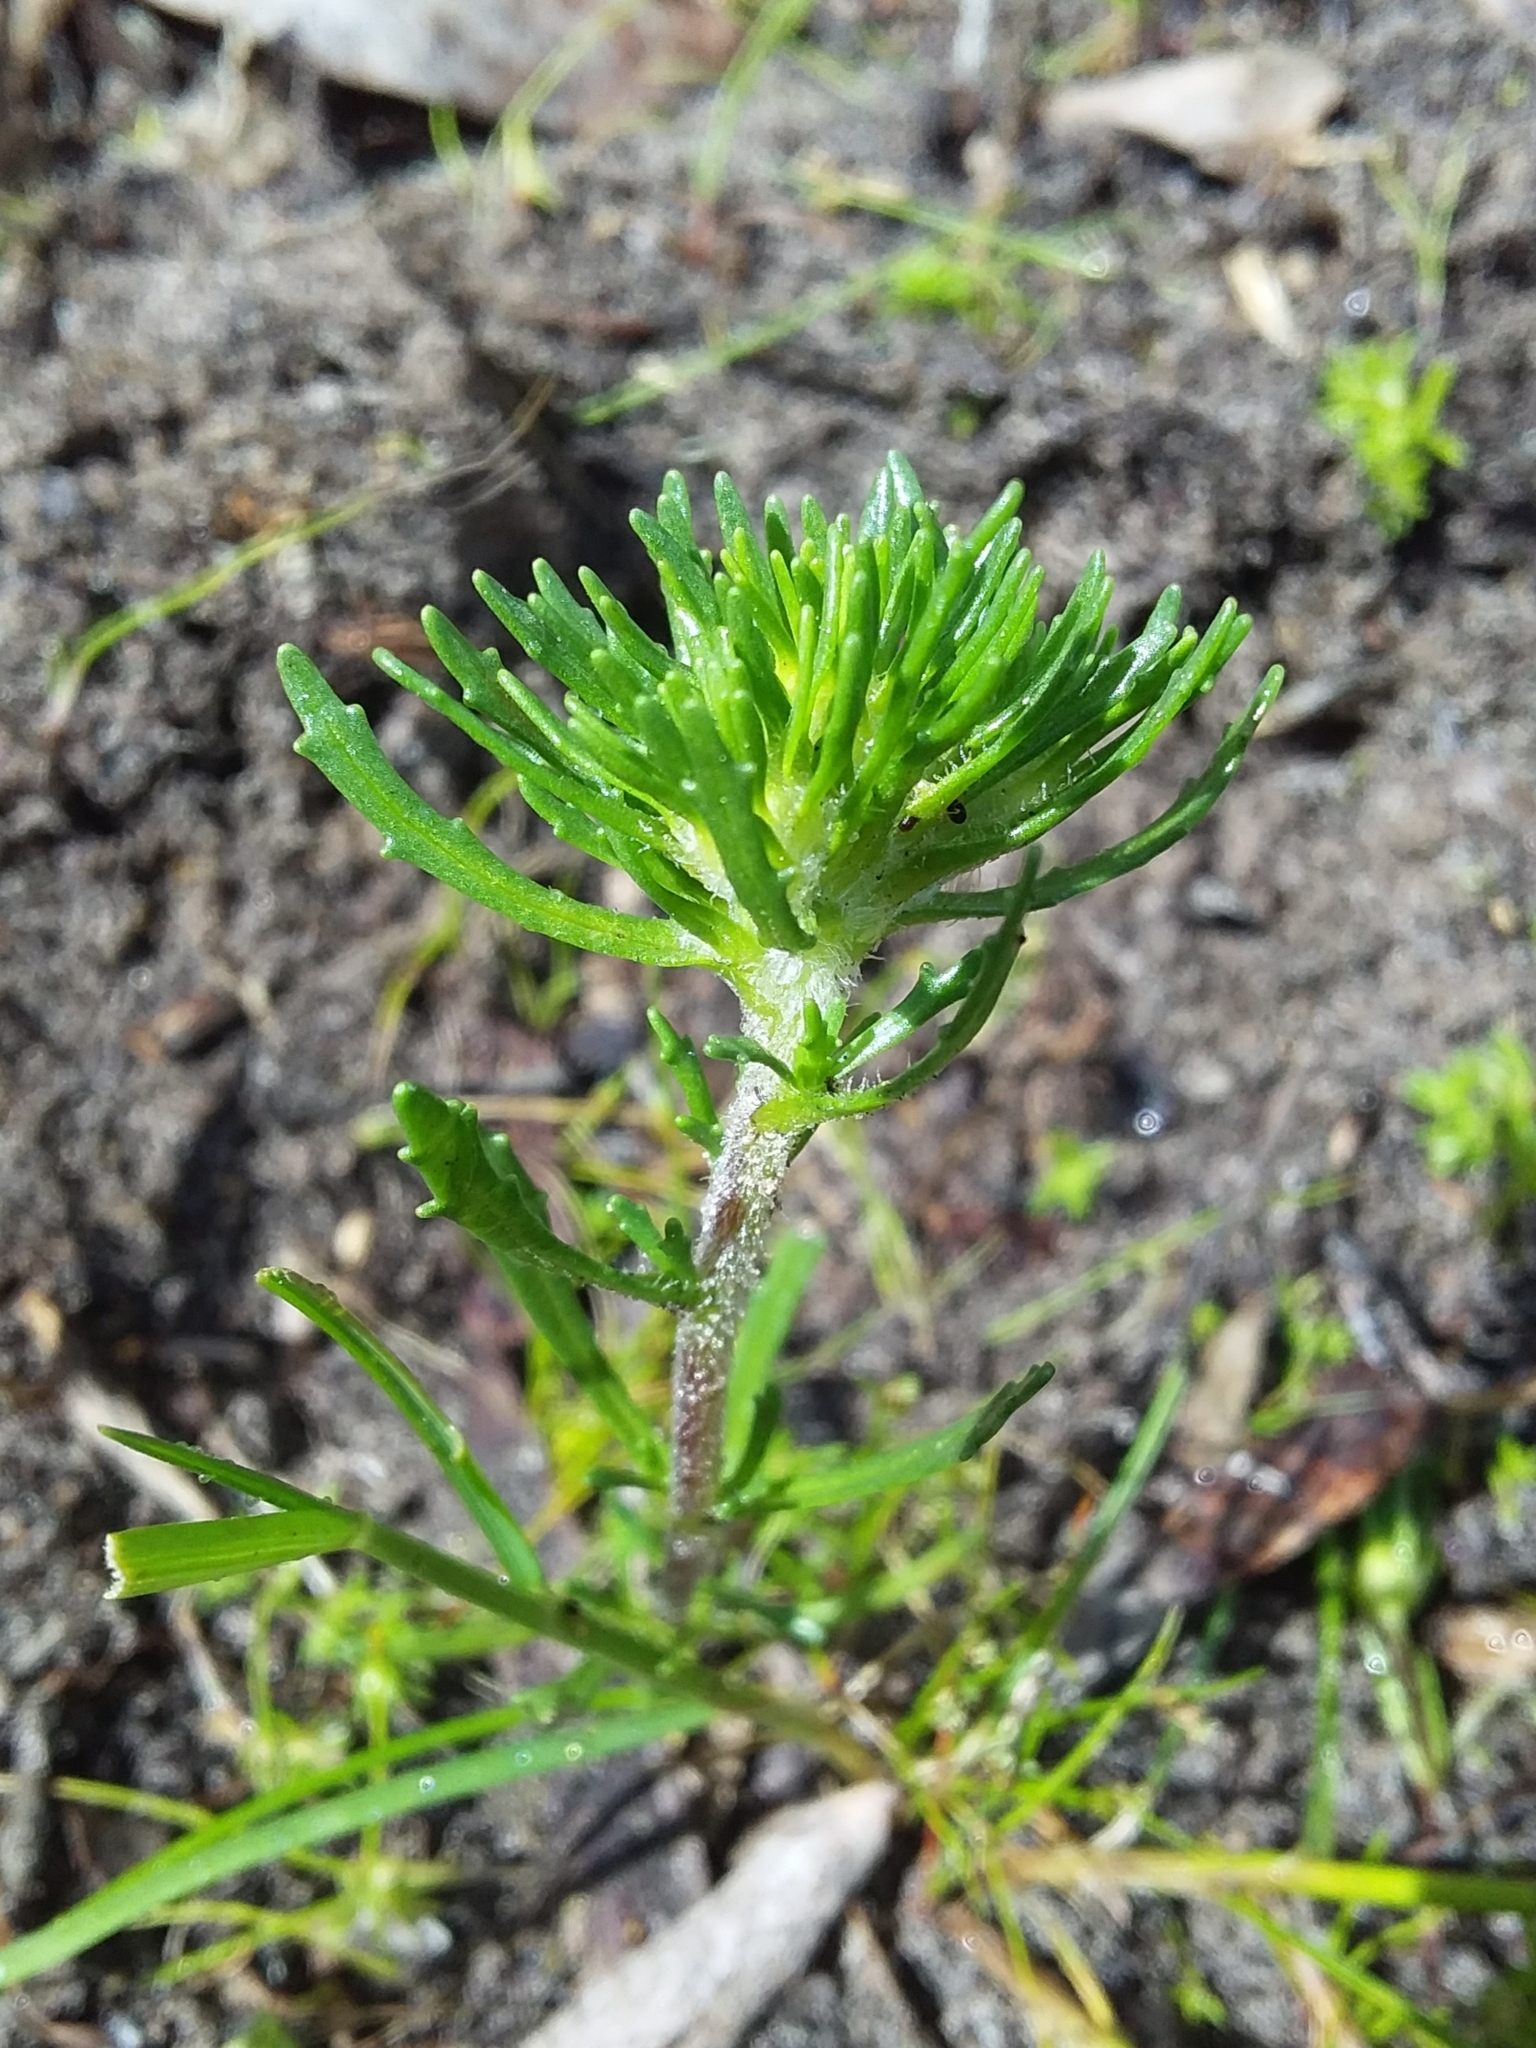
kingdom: Plantae
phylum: Tracheophyta
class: Magnoliopsida
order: Lamiales
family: Scrophulariaceae
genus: Dischisma
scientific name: Dischisma capitatum
